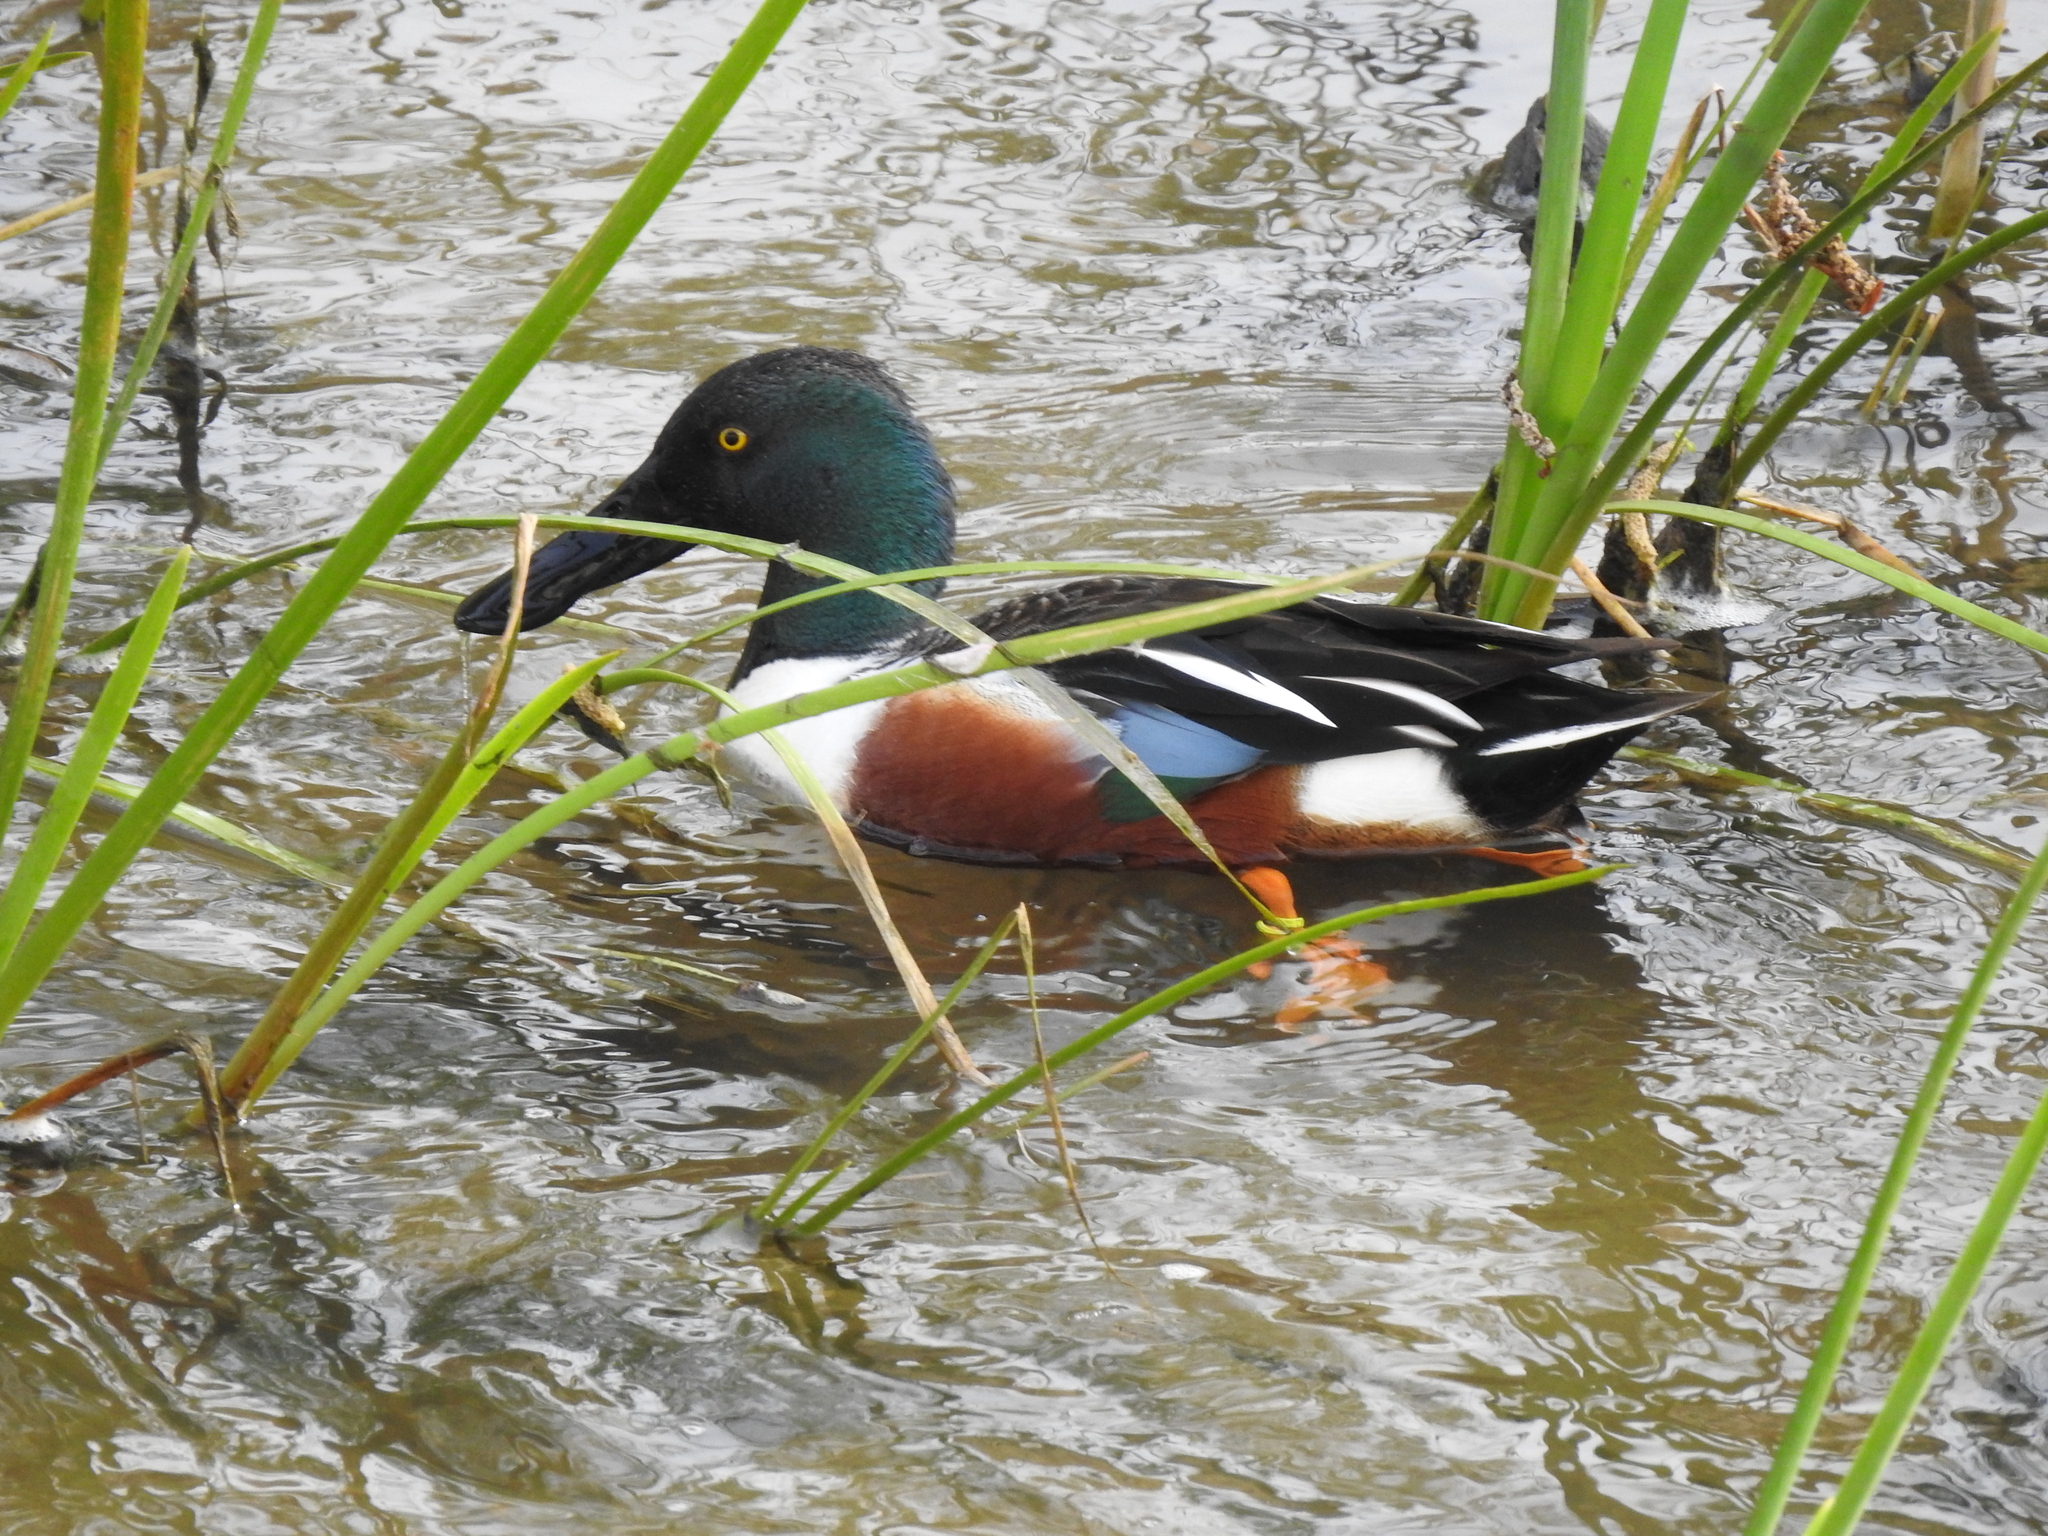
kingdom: Animalia
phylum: Chordata
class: Aves
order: Anseriformes
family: Anatidae
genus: Spatula
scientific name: Spatula clypeata
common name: Northern shoveler
